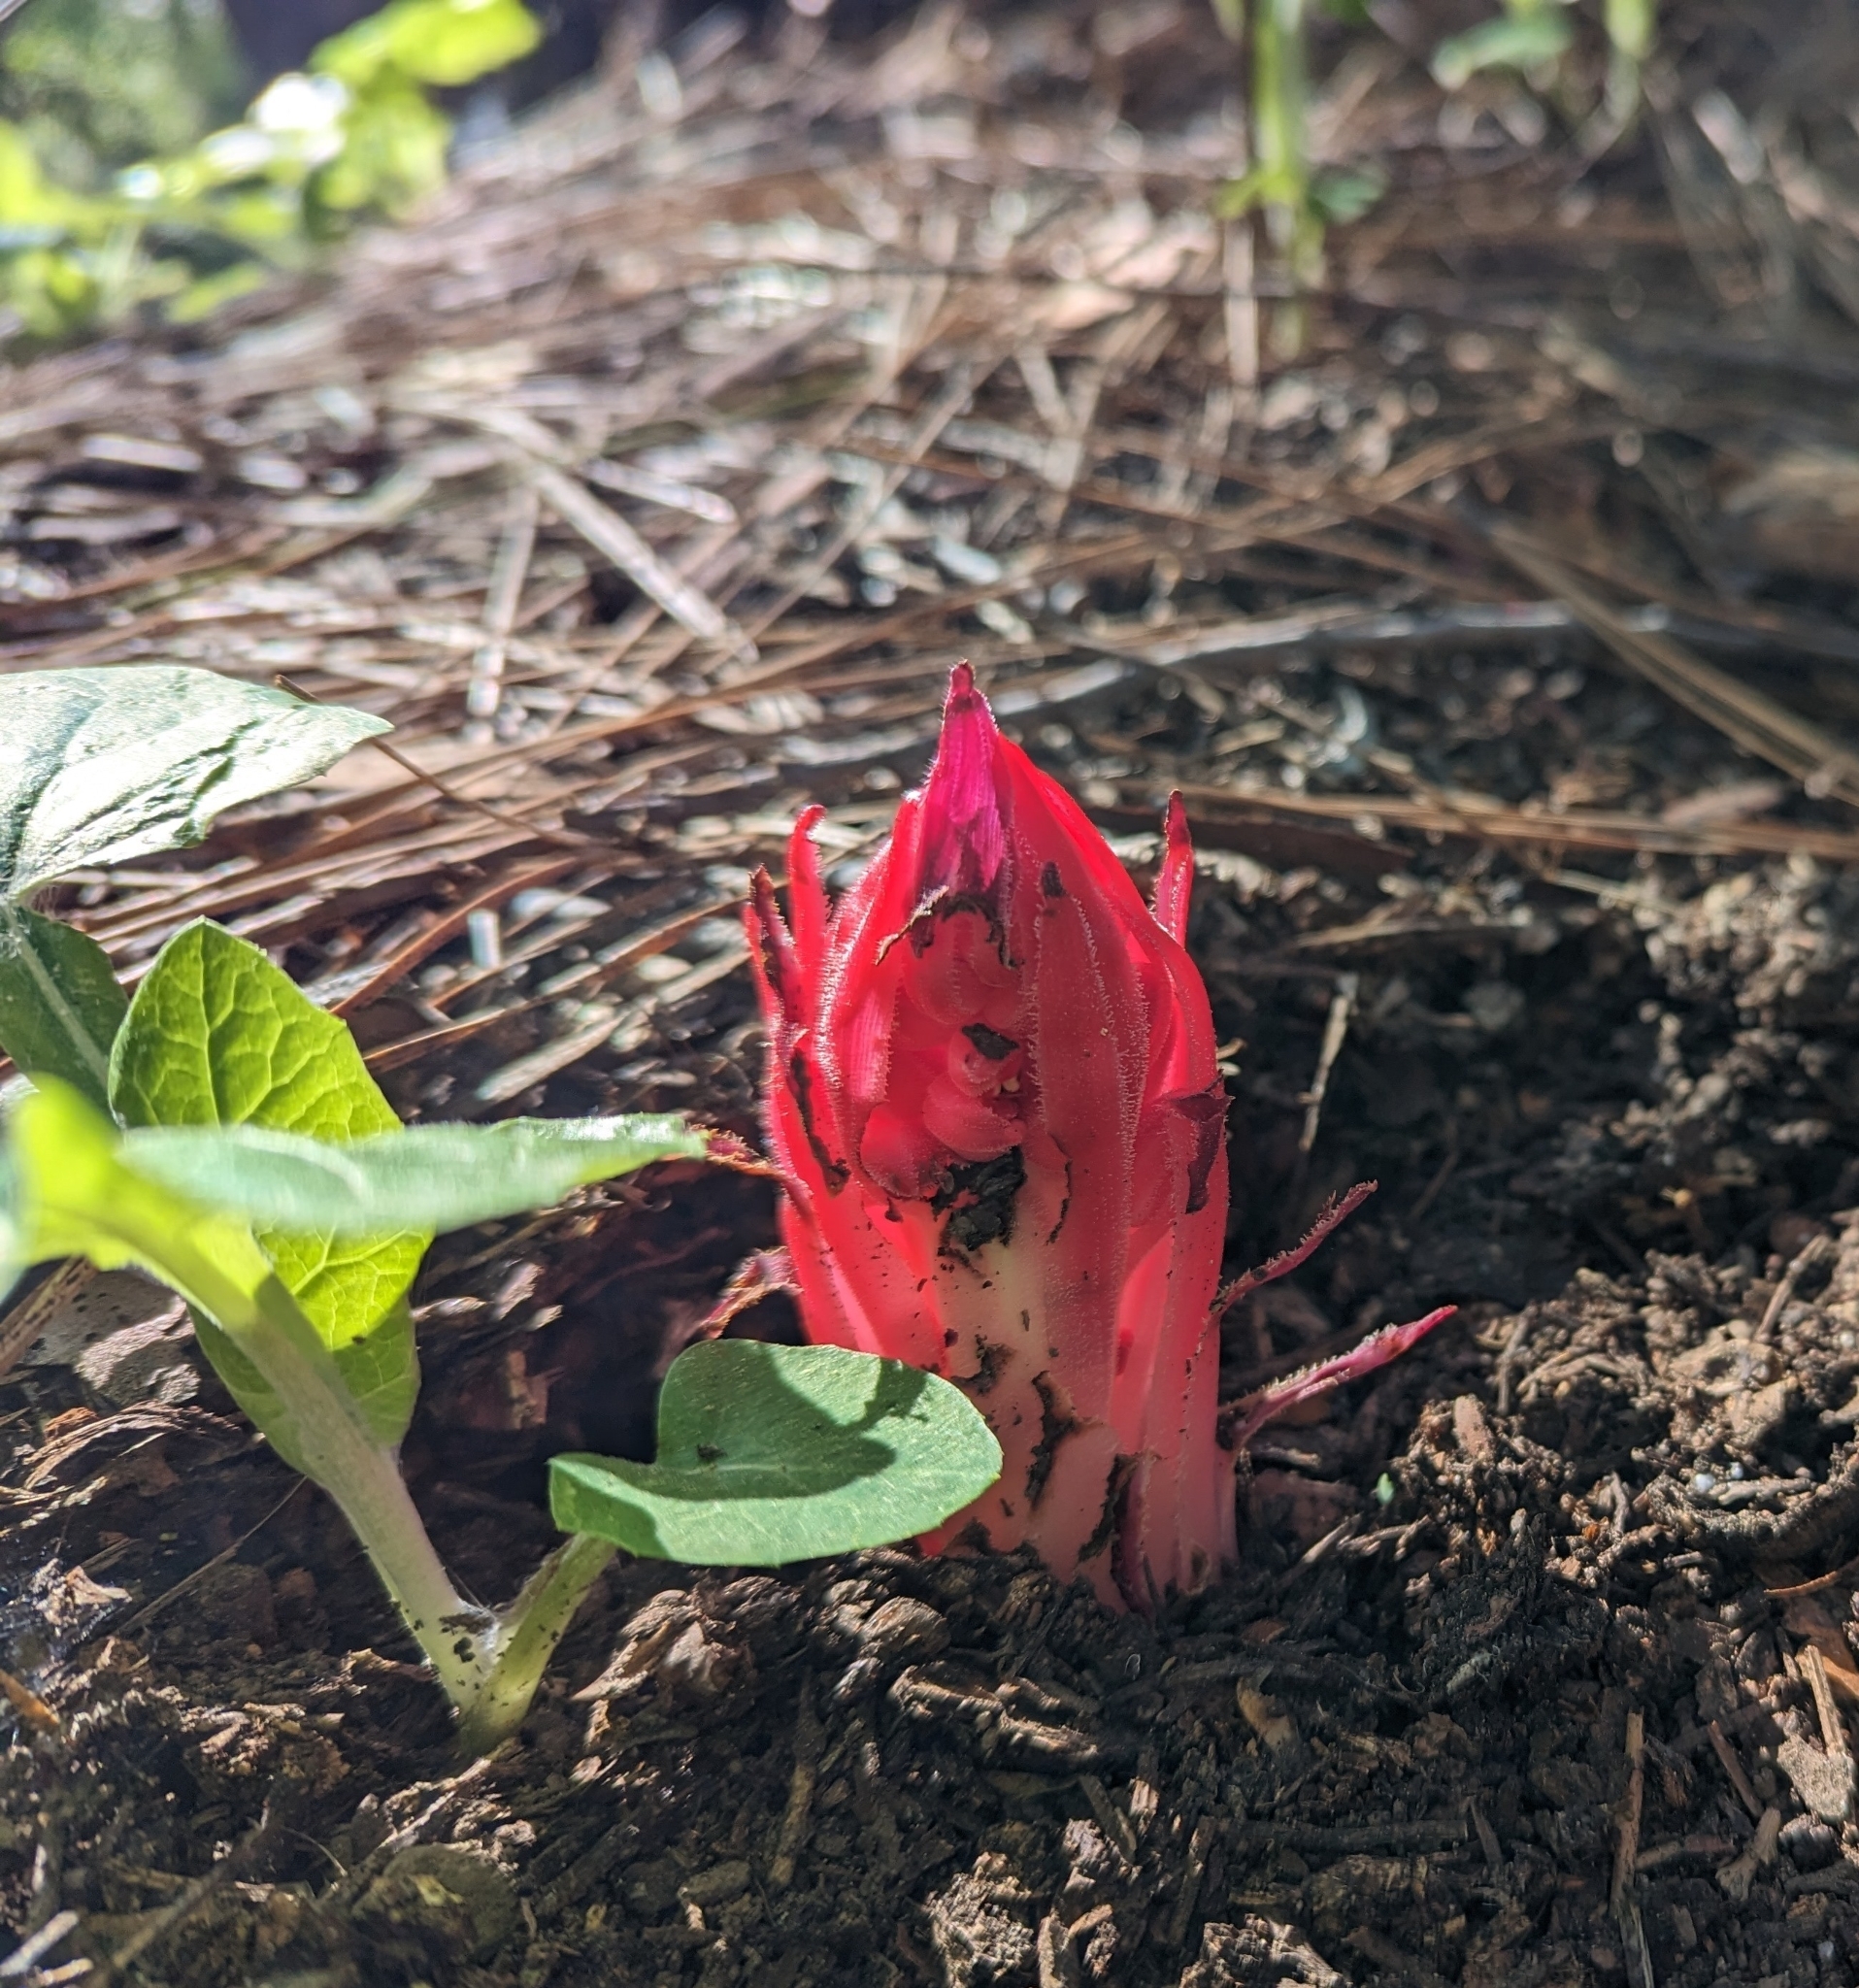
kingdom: Plantae
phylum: Tracheophyta
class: Magnoliopsida
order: Ericales
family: Ericaceae
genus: Sarcodes
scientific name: Sarcodes sanguinea
